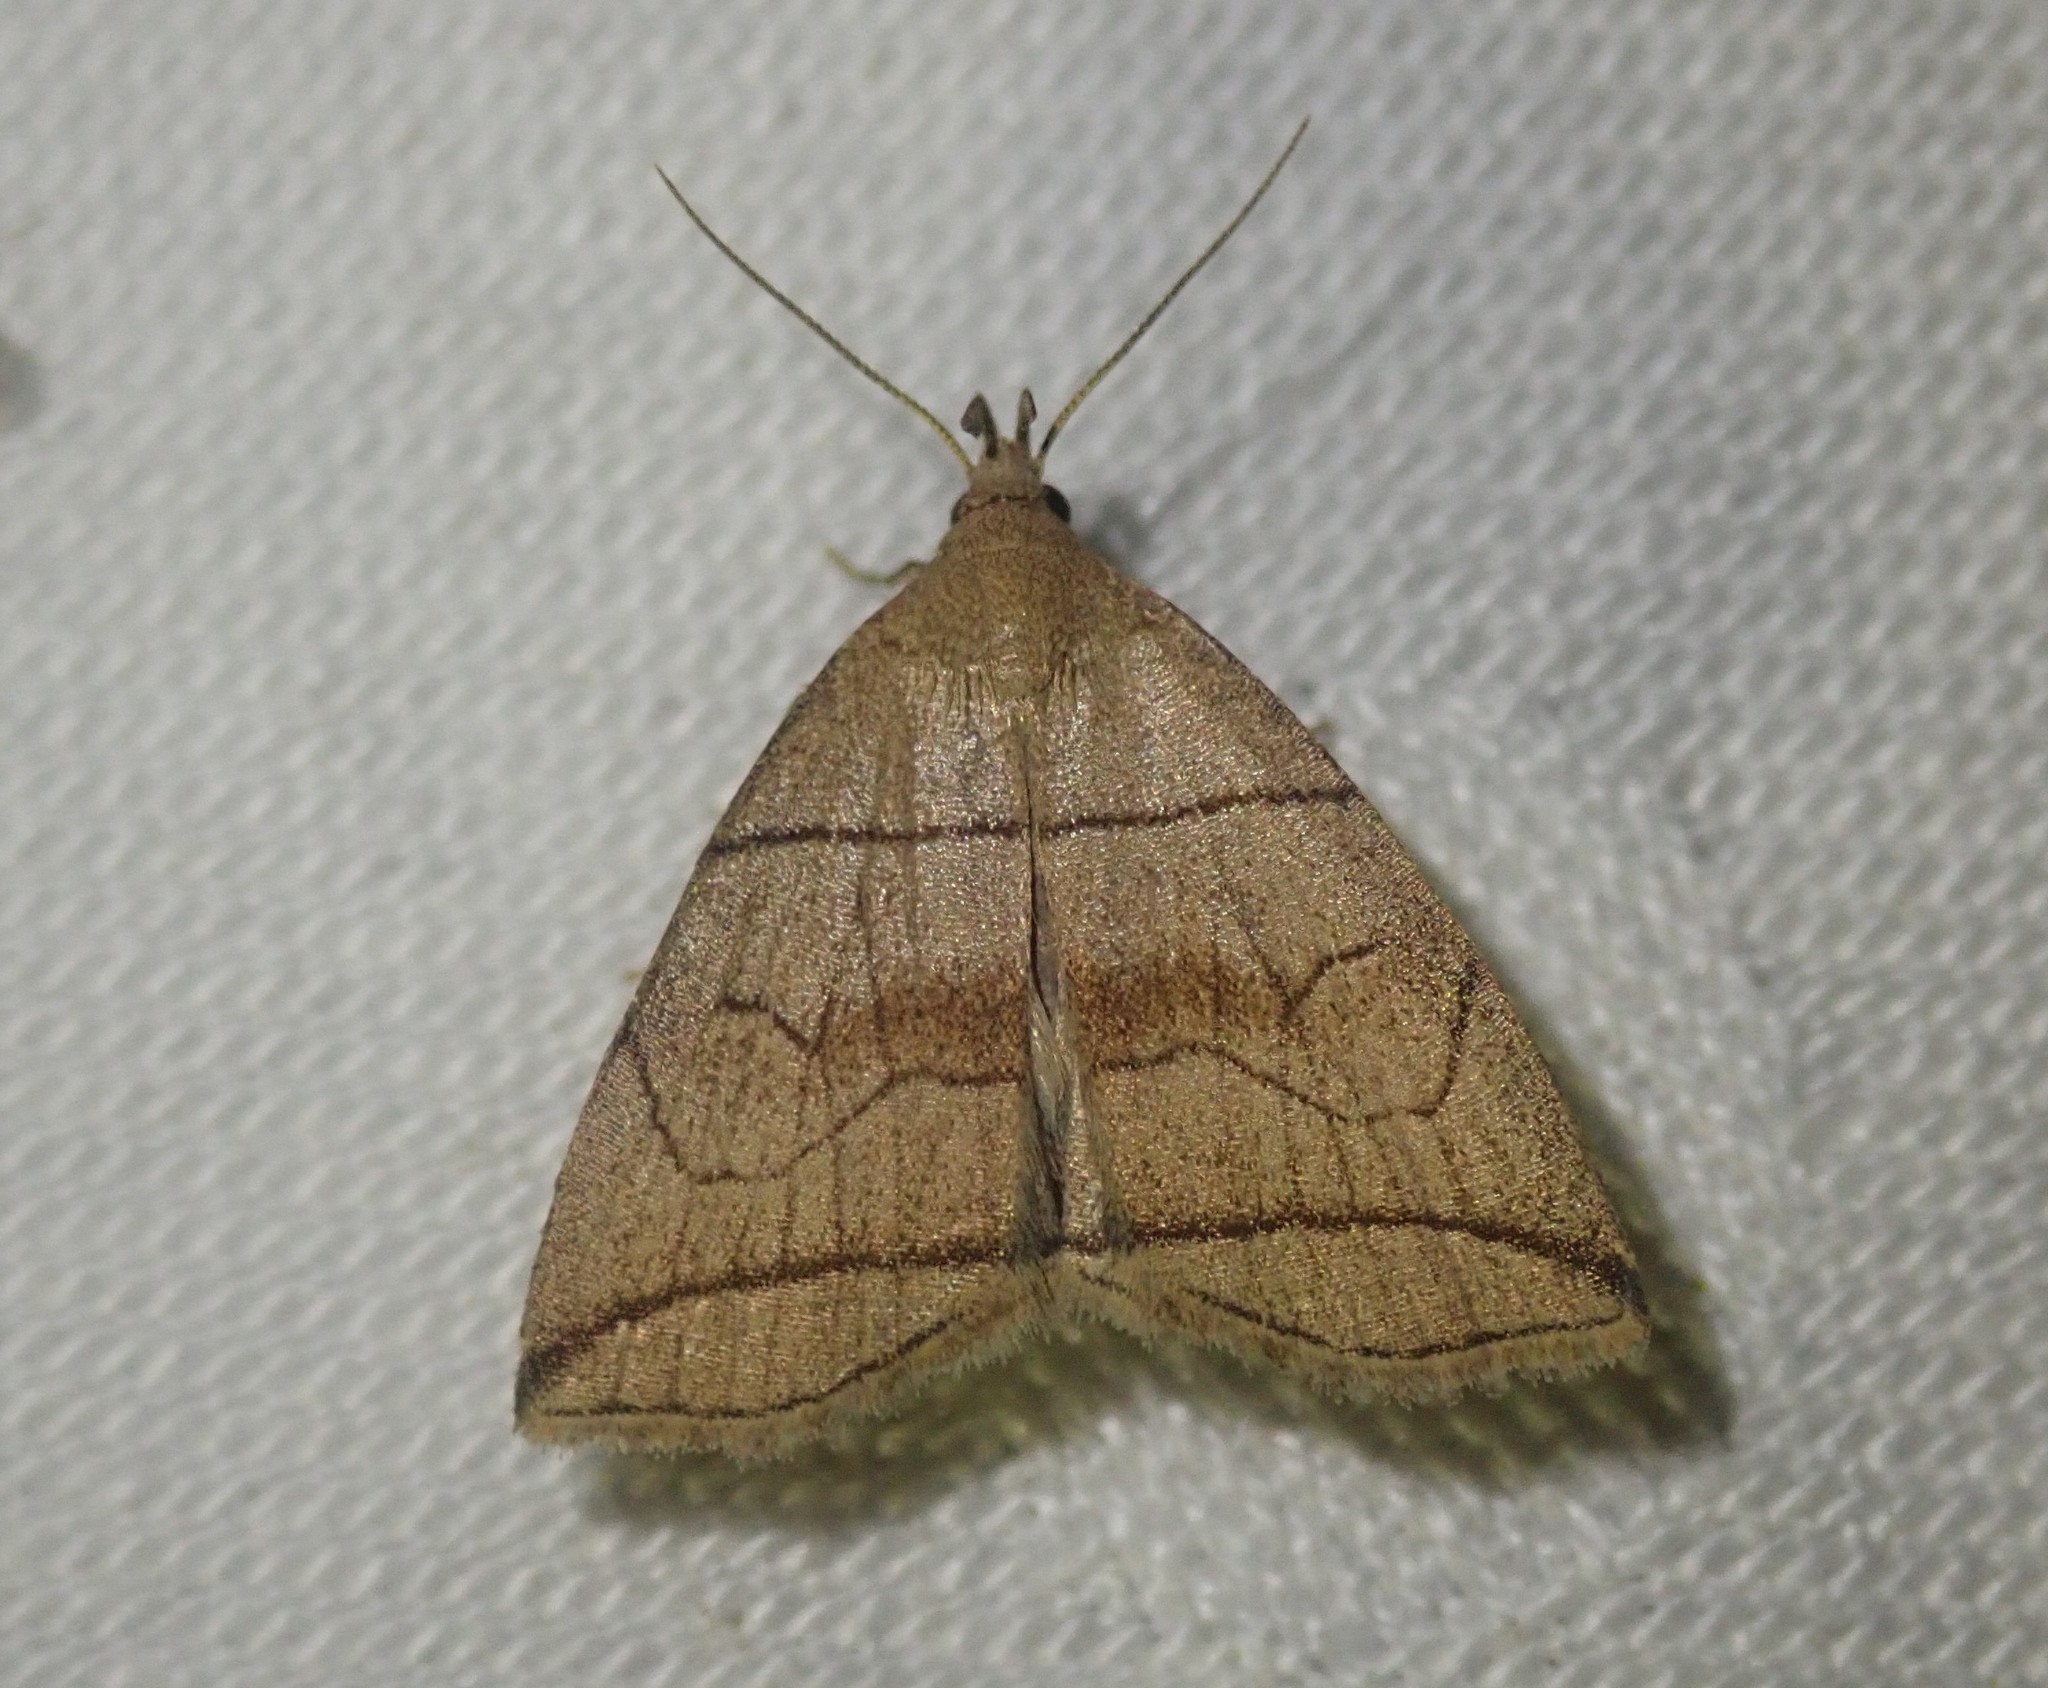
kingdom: Animalia
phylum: Arthropoda
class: Insecta
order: Lepidoptera
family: Erebidae
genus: Herminia
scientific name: Herminia grisealis
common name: Small fan-foot
